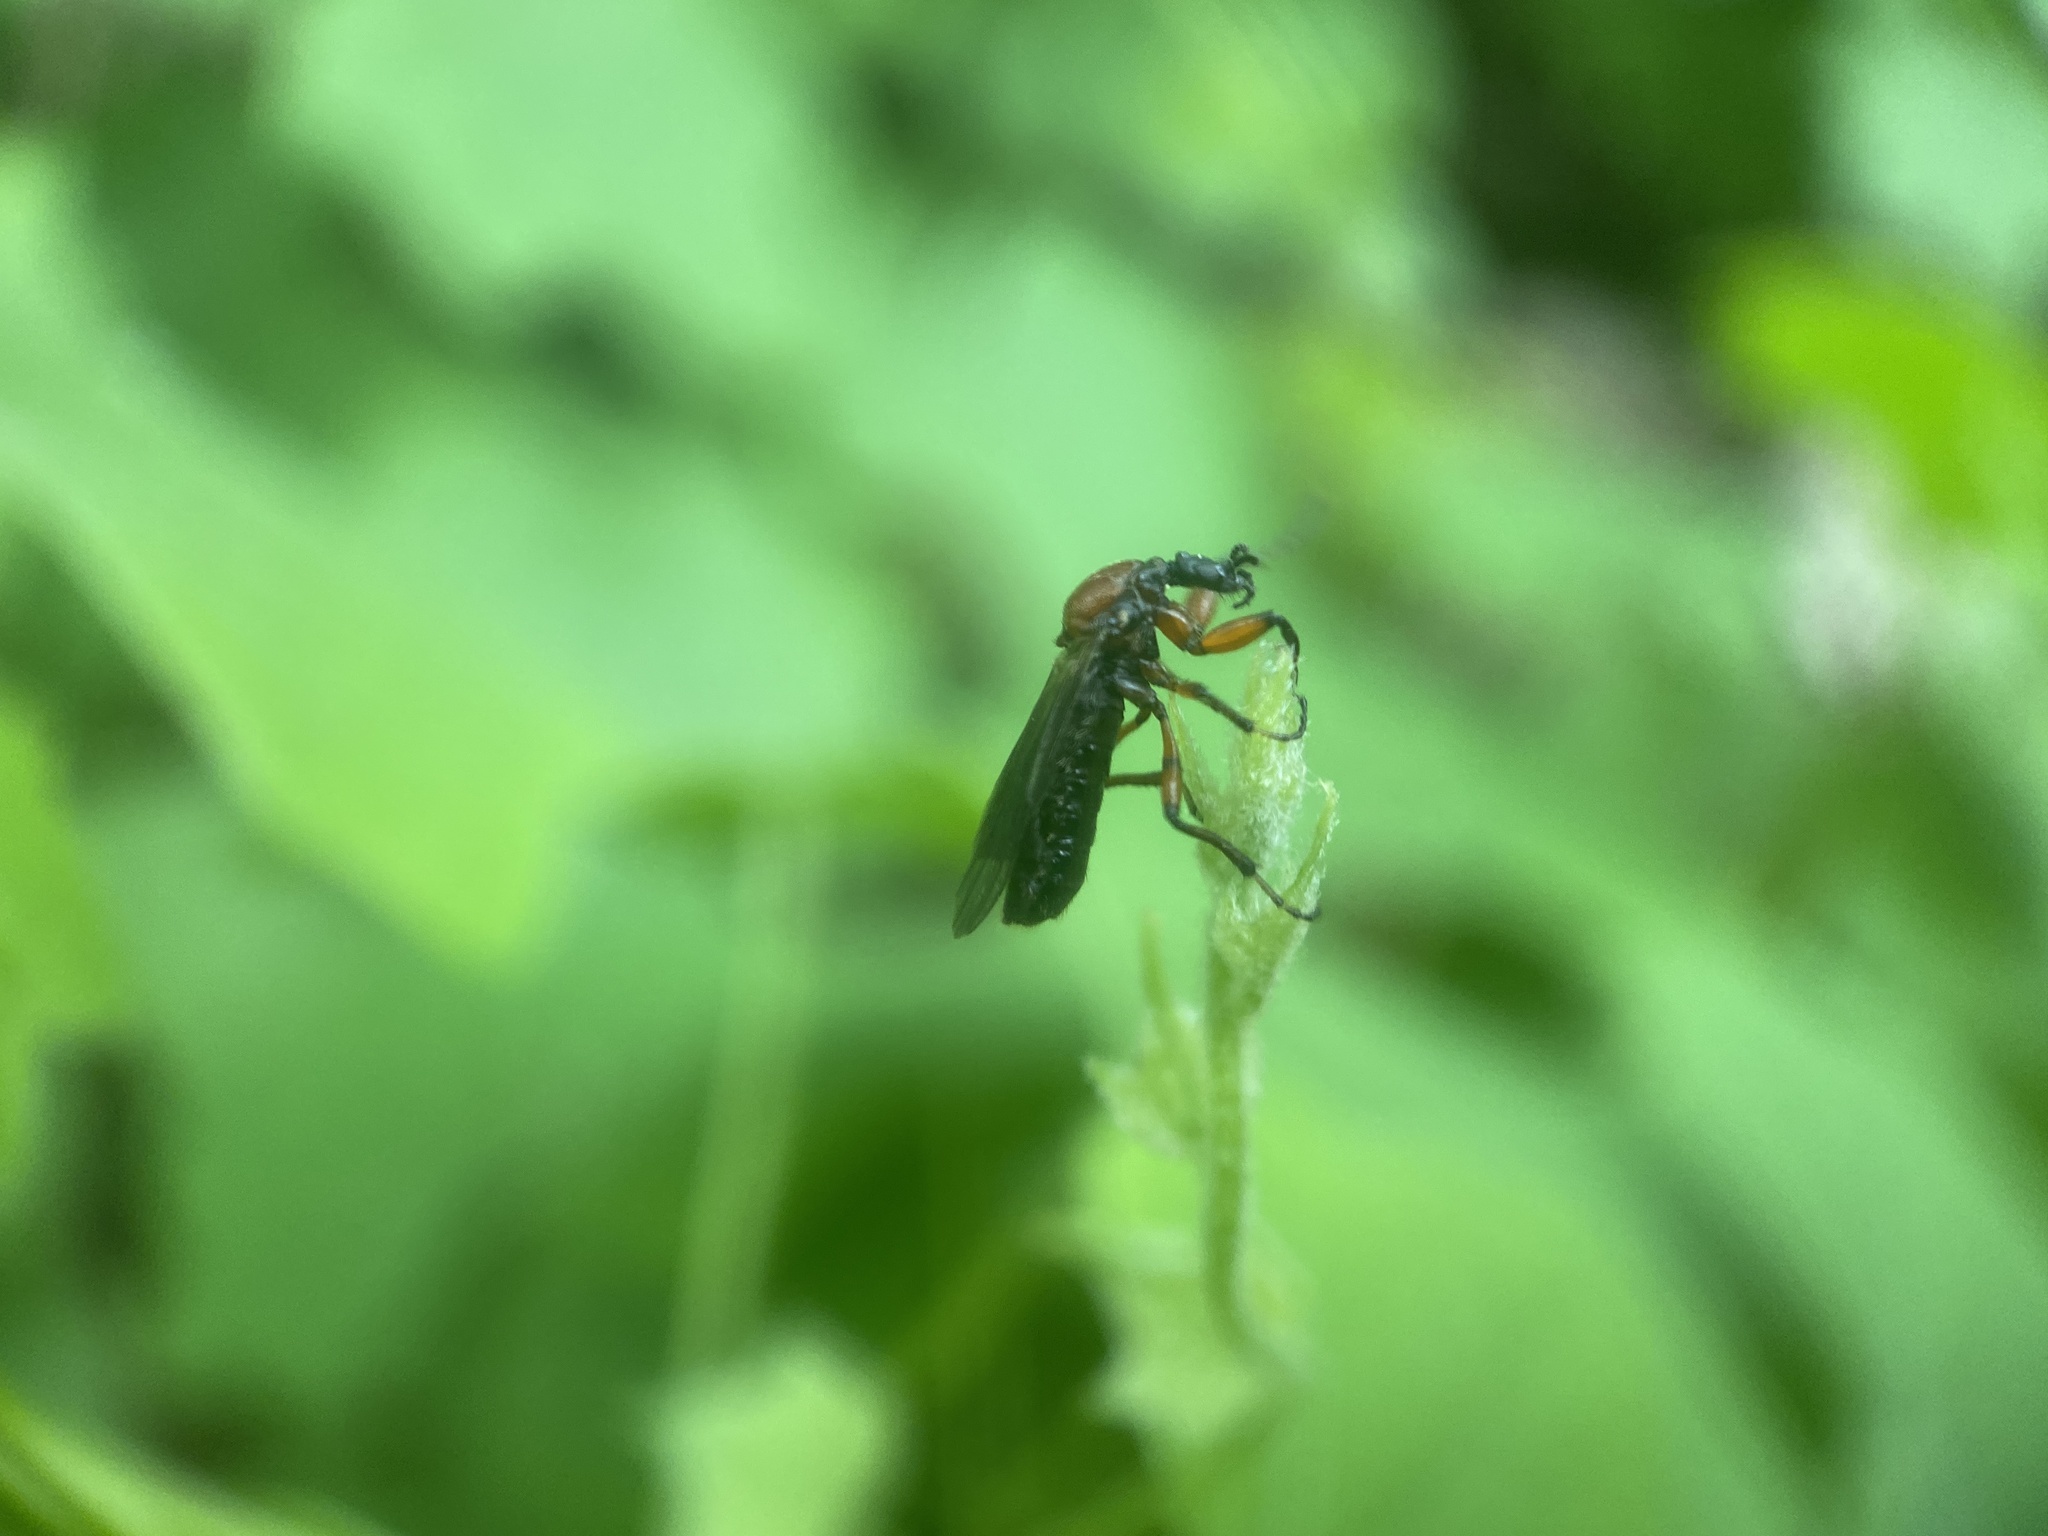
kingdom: Animalia
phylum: Arthropoda
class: Insecta
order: Diptera
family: Bibionidae
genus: Bibio
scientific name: Bibio articulatus
